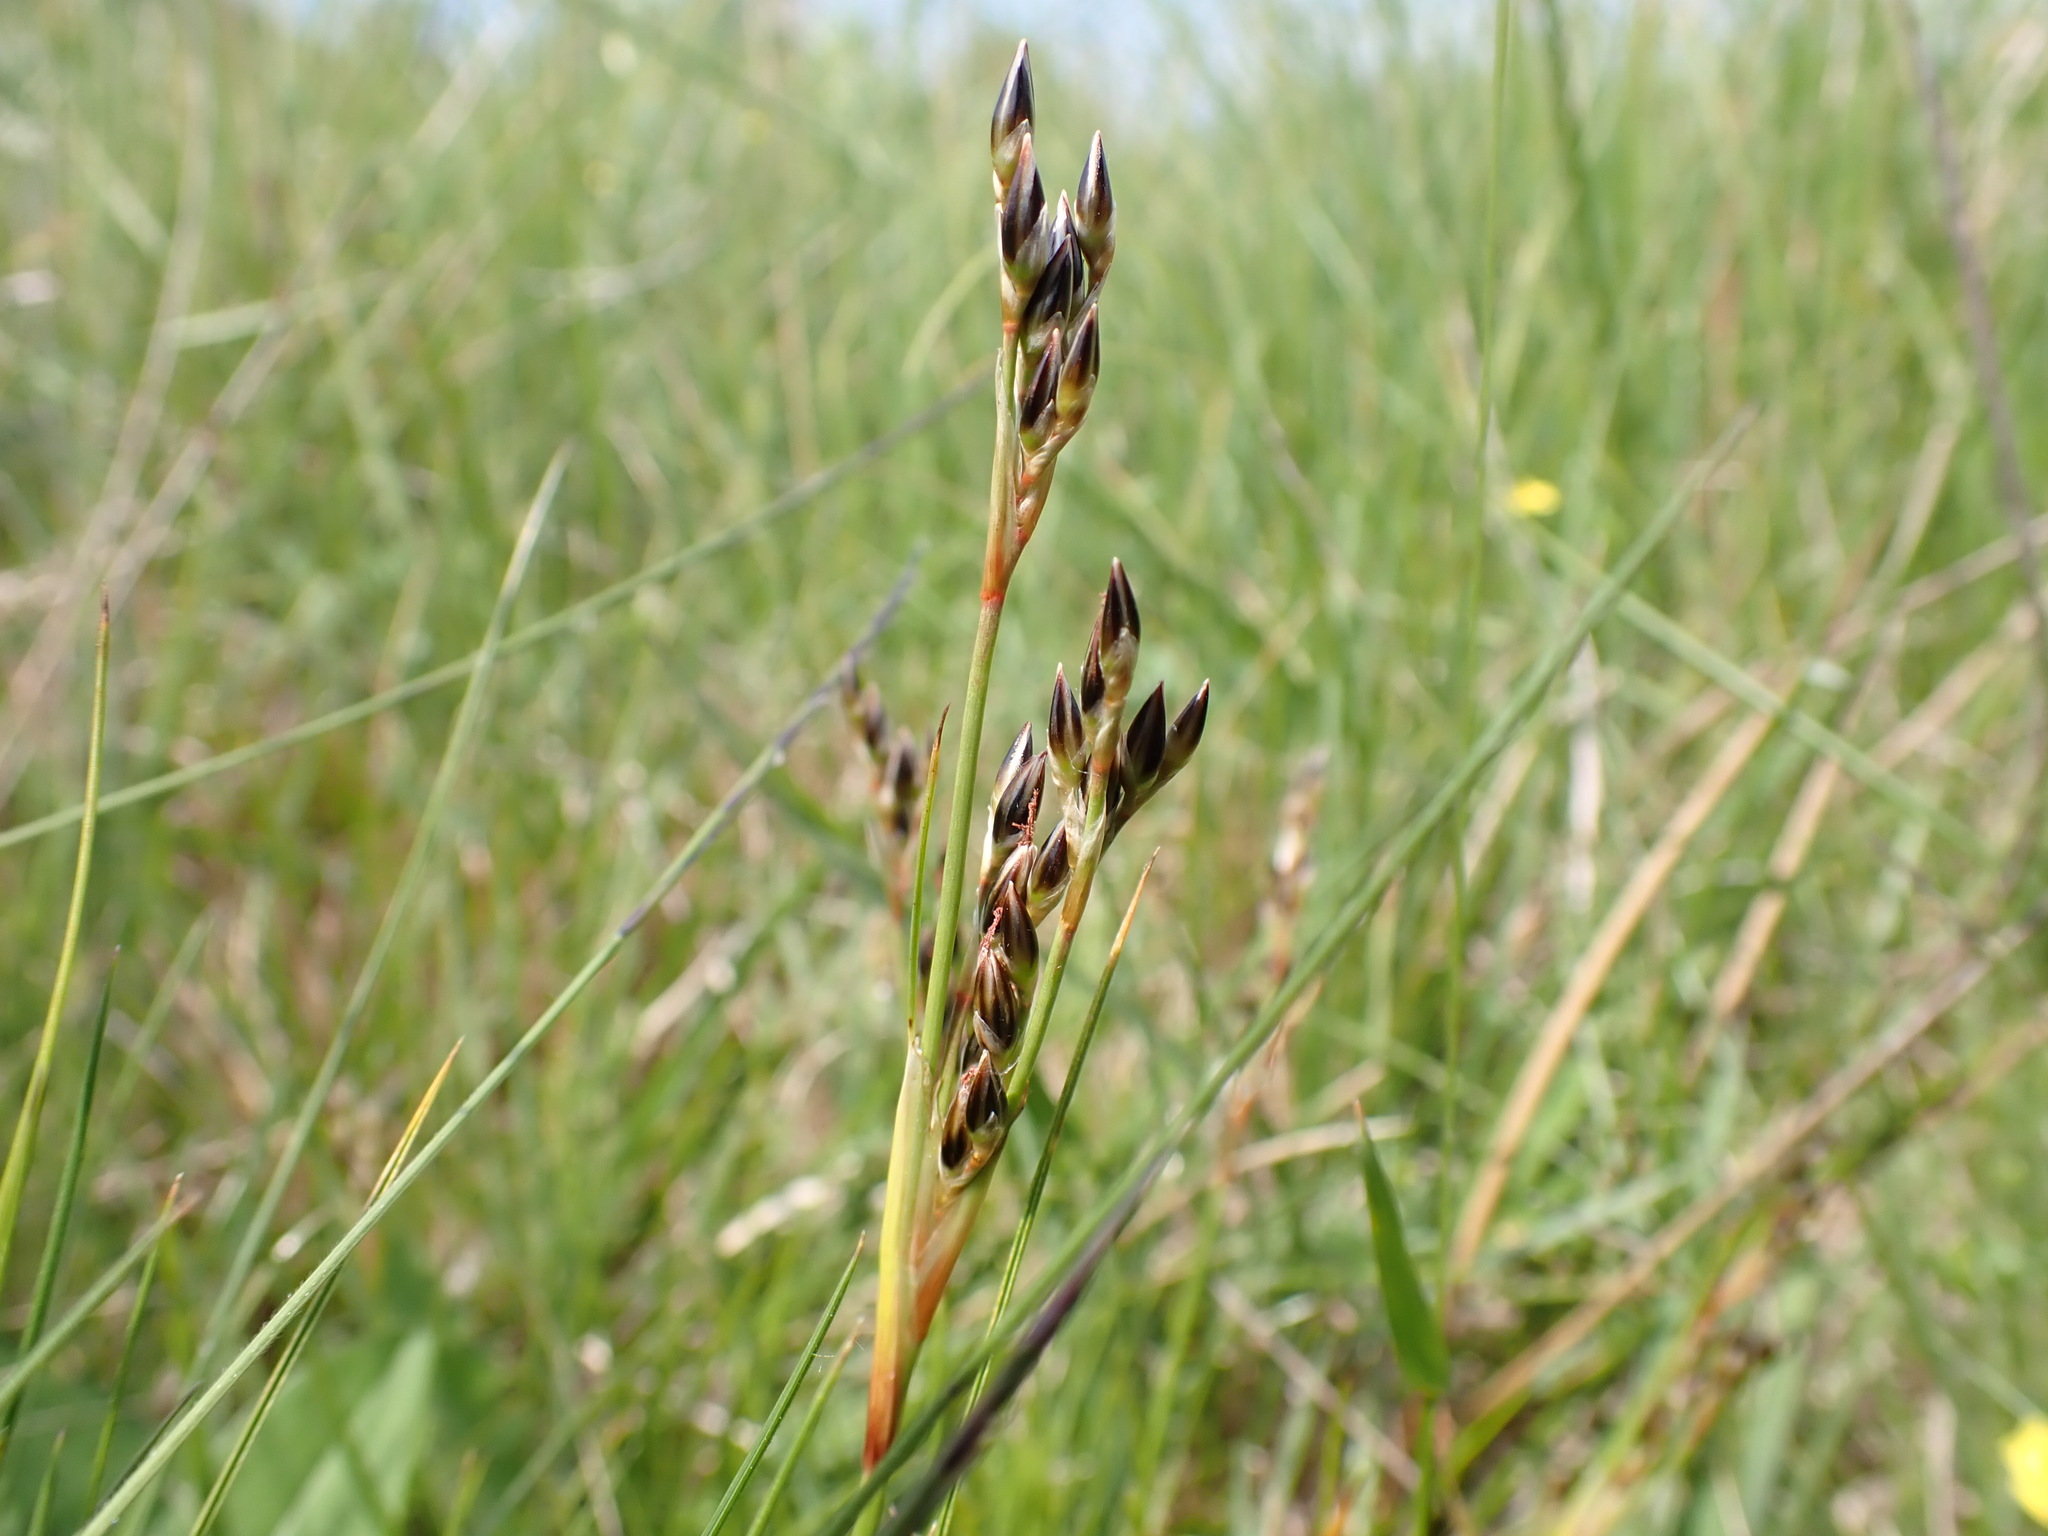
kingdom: Plantae
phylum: Tracheophyta
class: Liliopsida
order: Poales
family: Juncaceae
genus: Juncus
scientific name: Juncus squarrosus
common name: Heath rush
